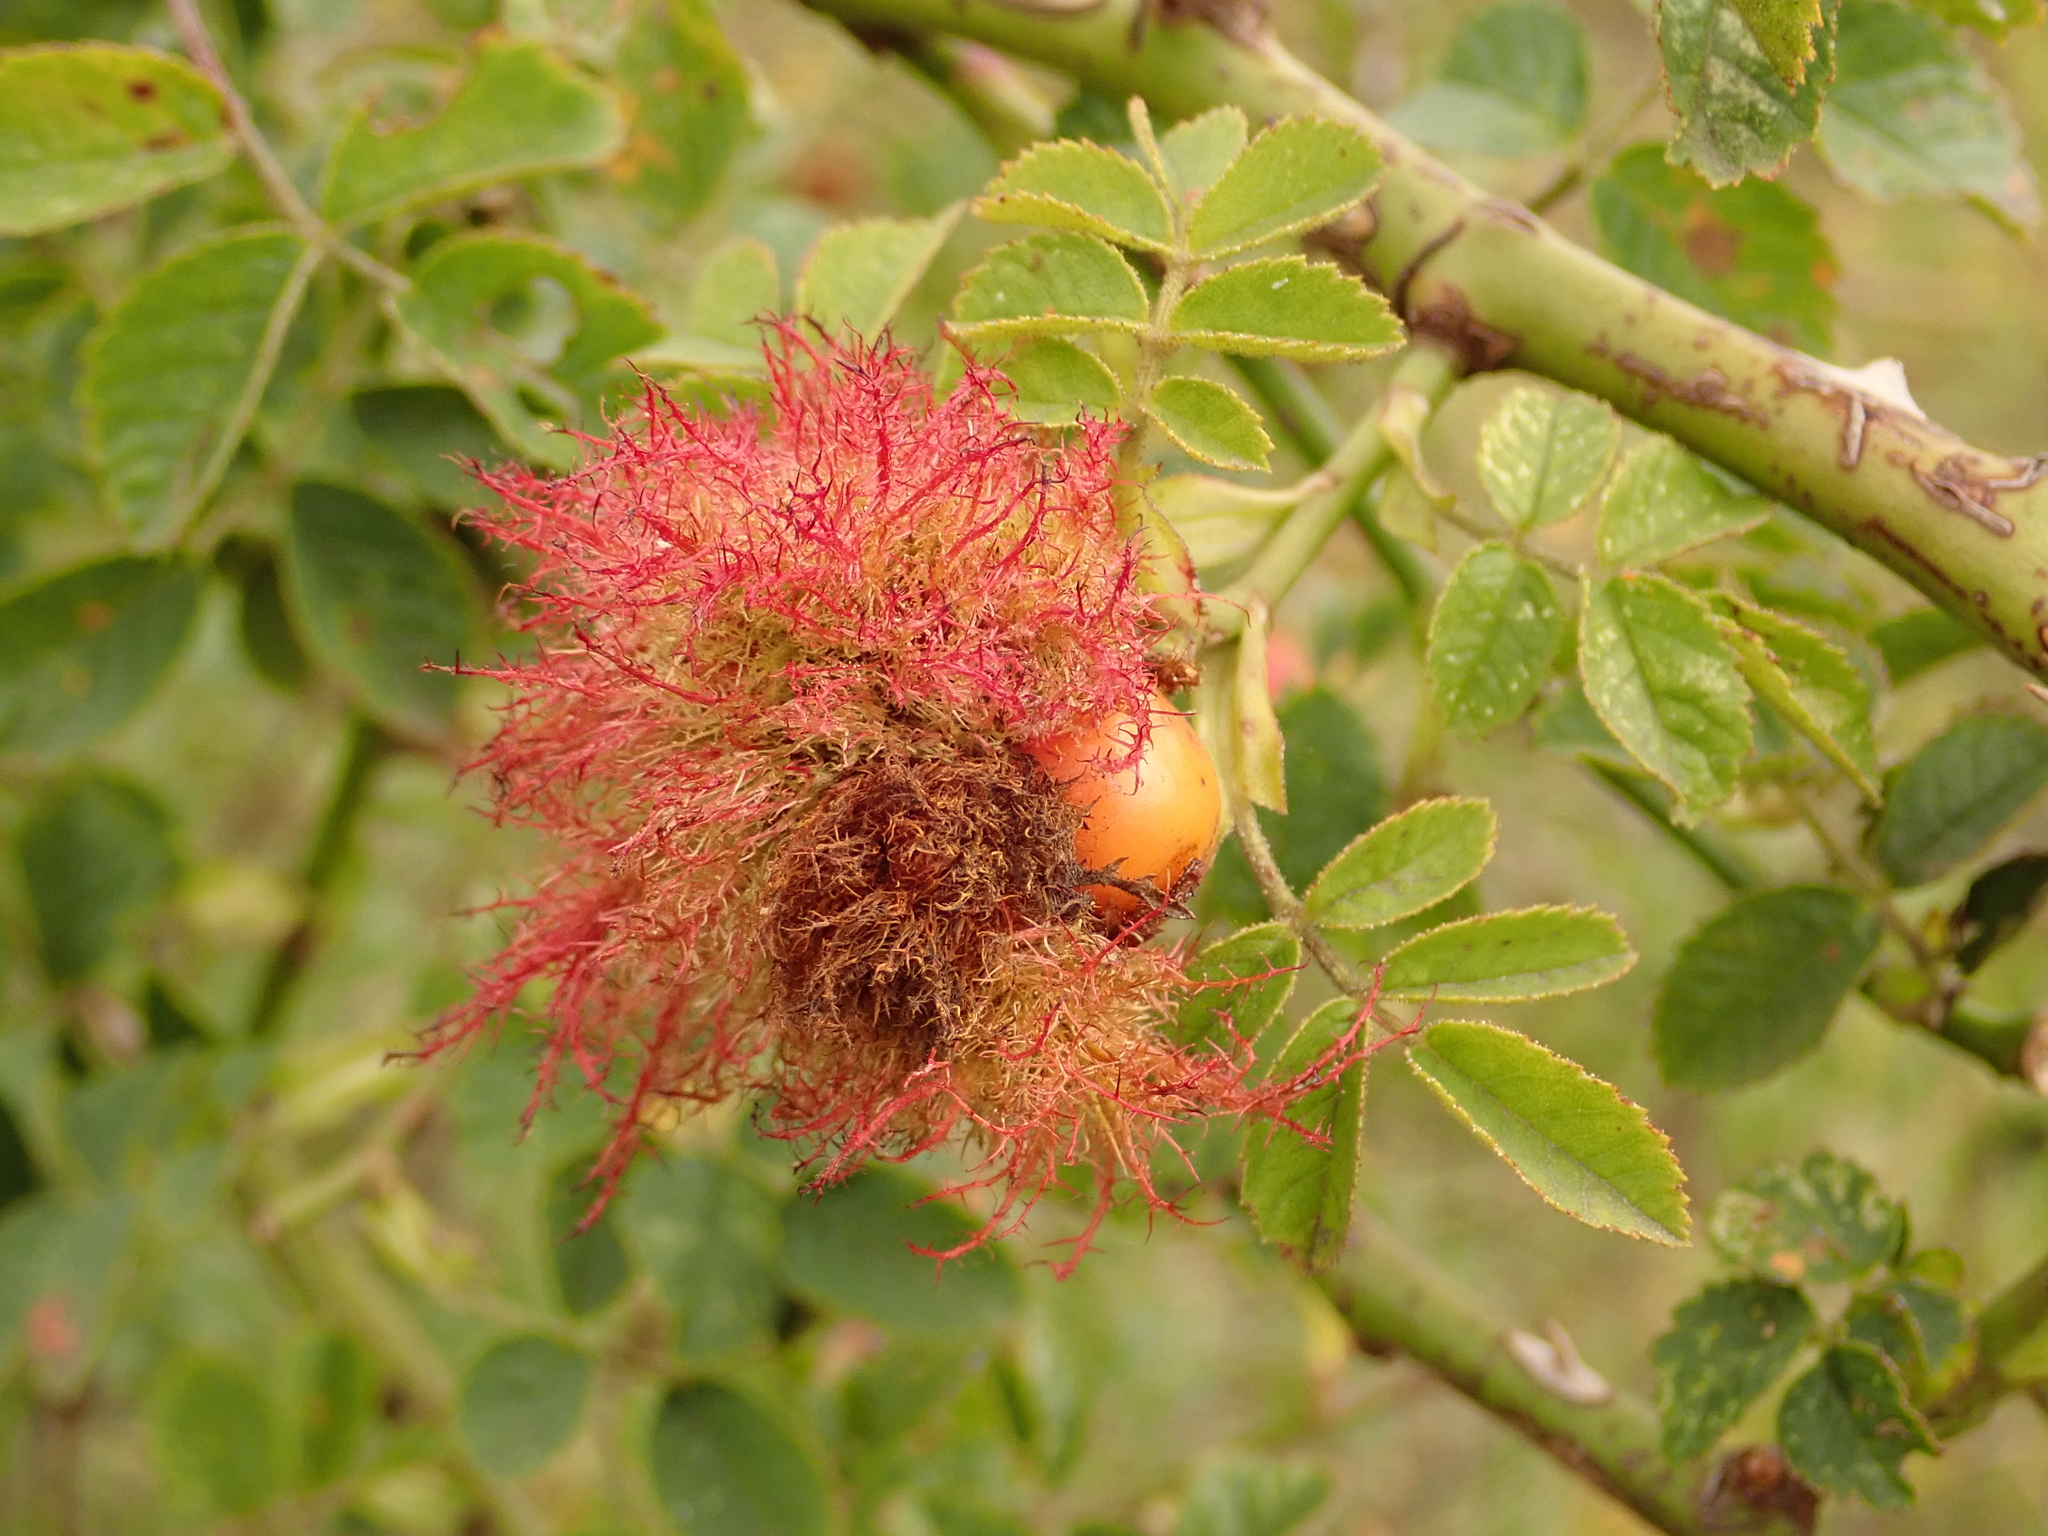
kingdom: Animalia
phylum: Arthropoda
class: Insecta
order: Hymenoptera
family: Cynipidae
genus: Diplolepis
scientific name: Diplolepis rosae
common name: Bedeguar gall
